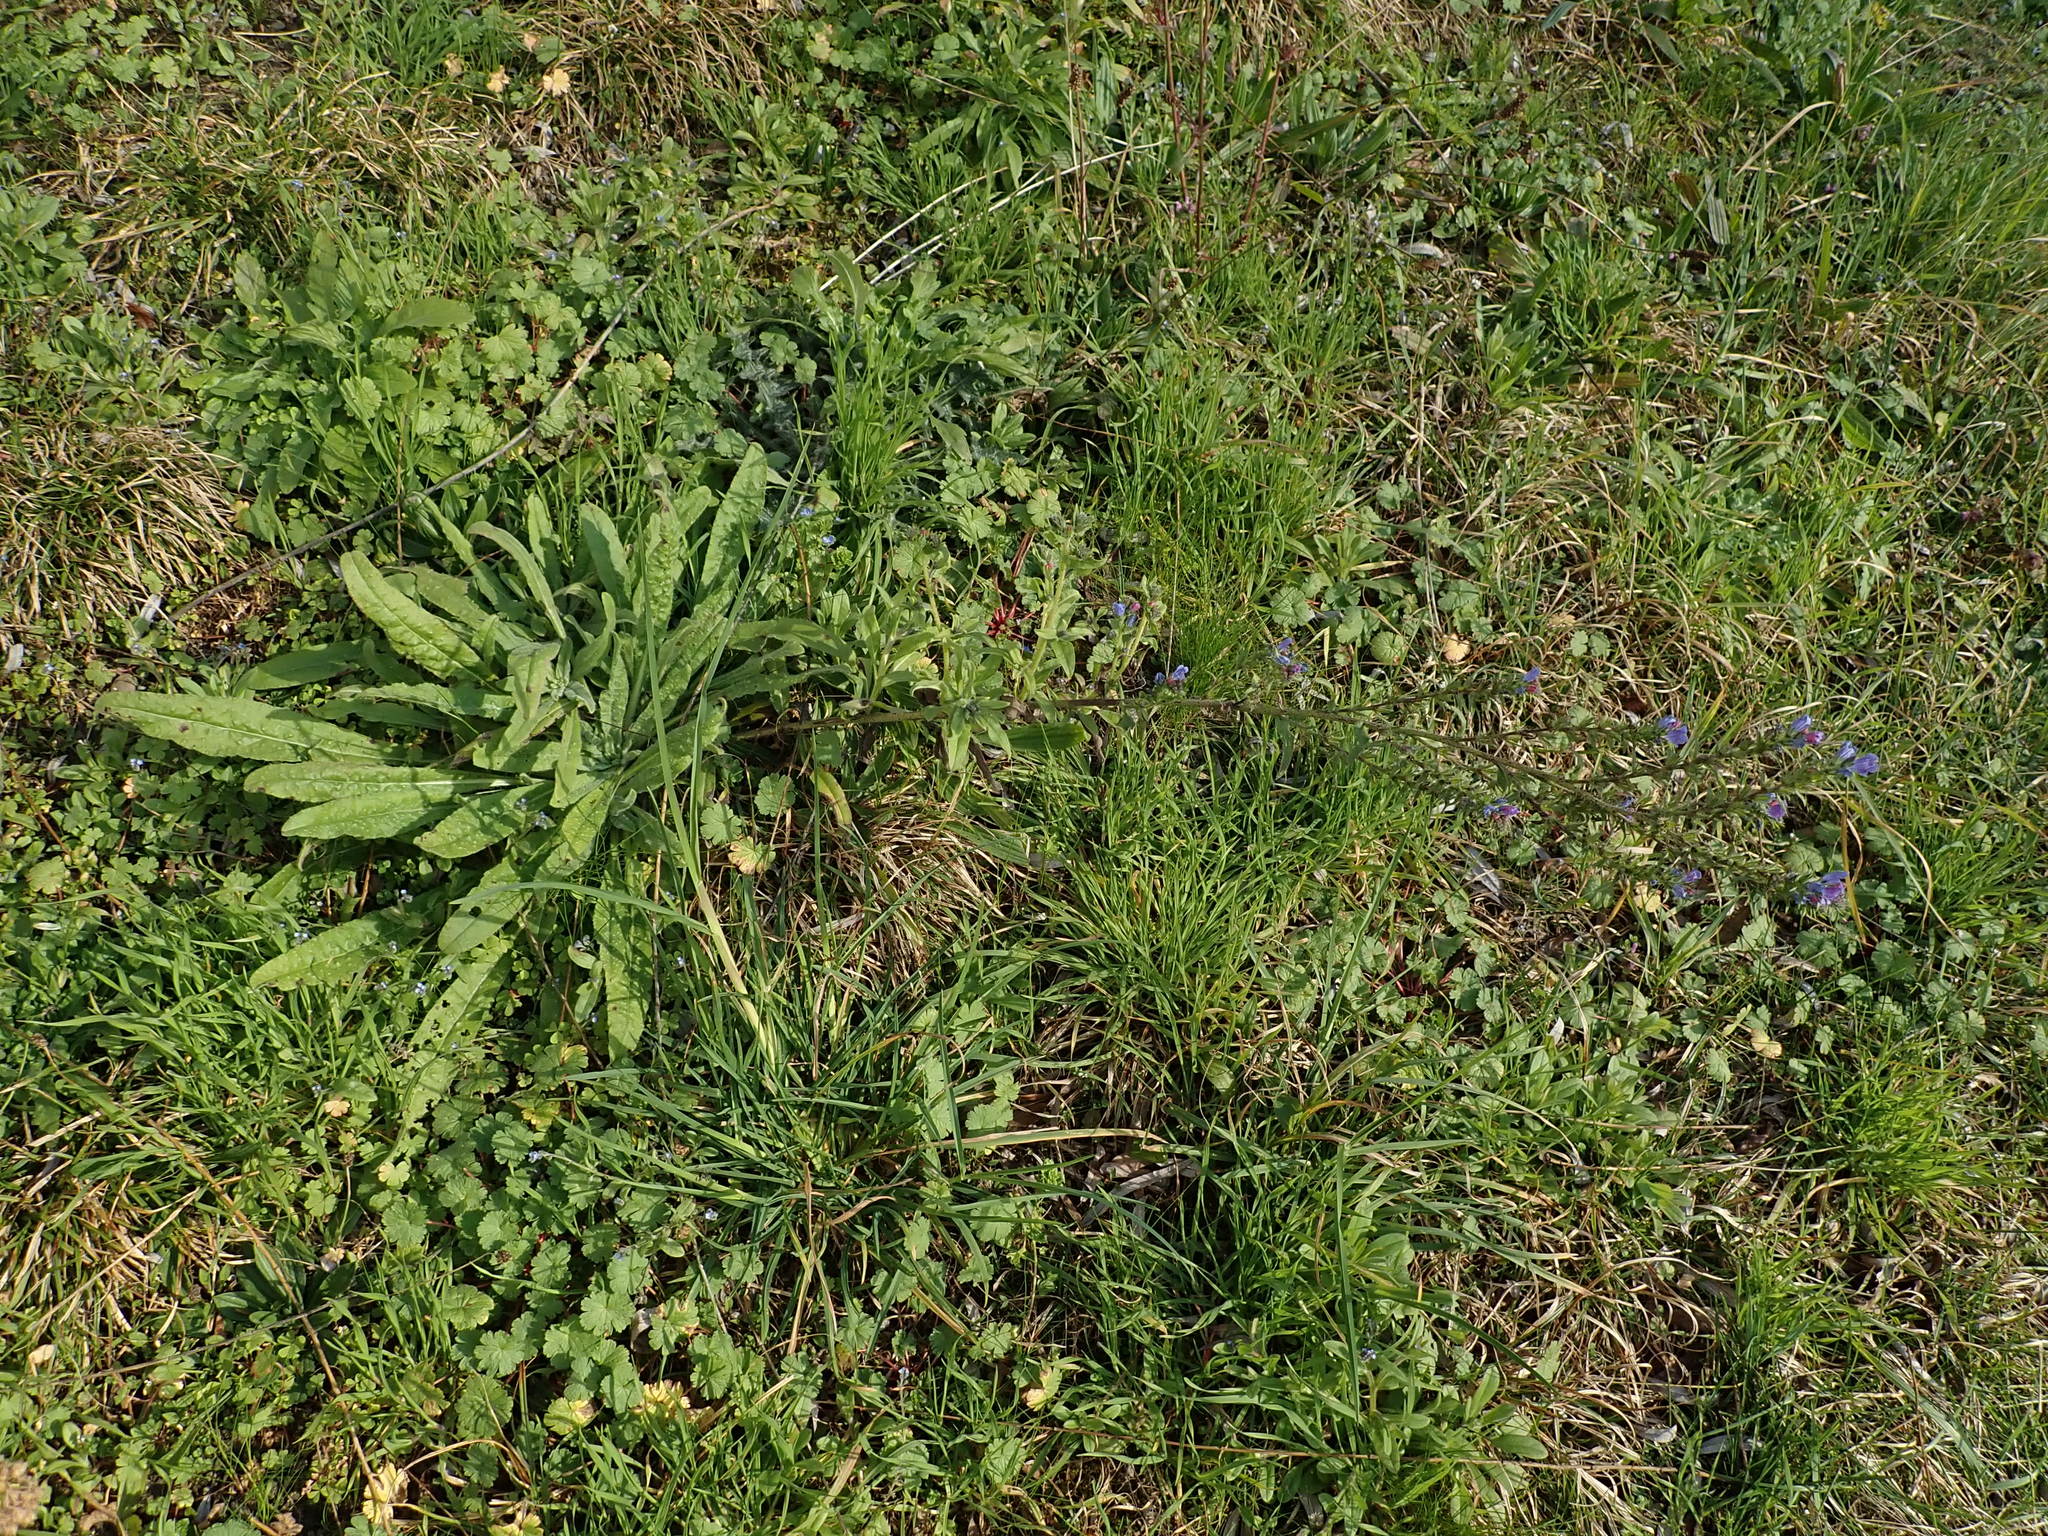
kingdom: Plantae
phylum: Tracheophyta
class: Magnoliopsida
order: Boraginales
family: Boraginaceae
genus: Echium
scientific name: Echium vulgare
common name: Common viper's bugloss
